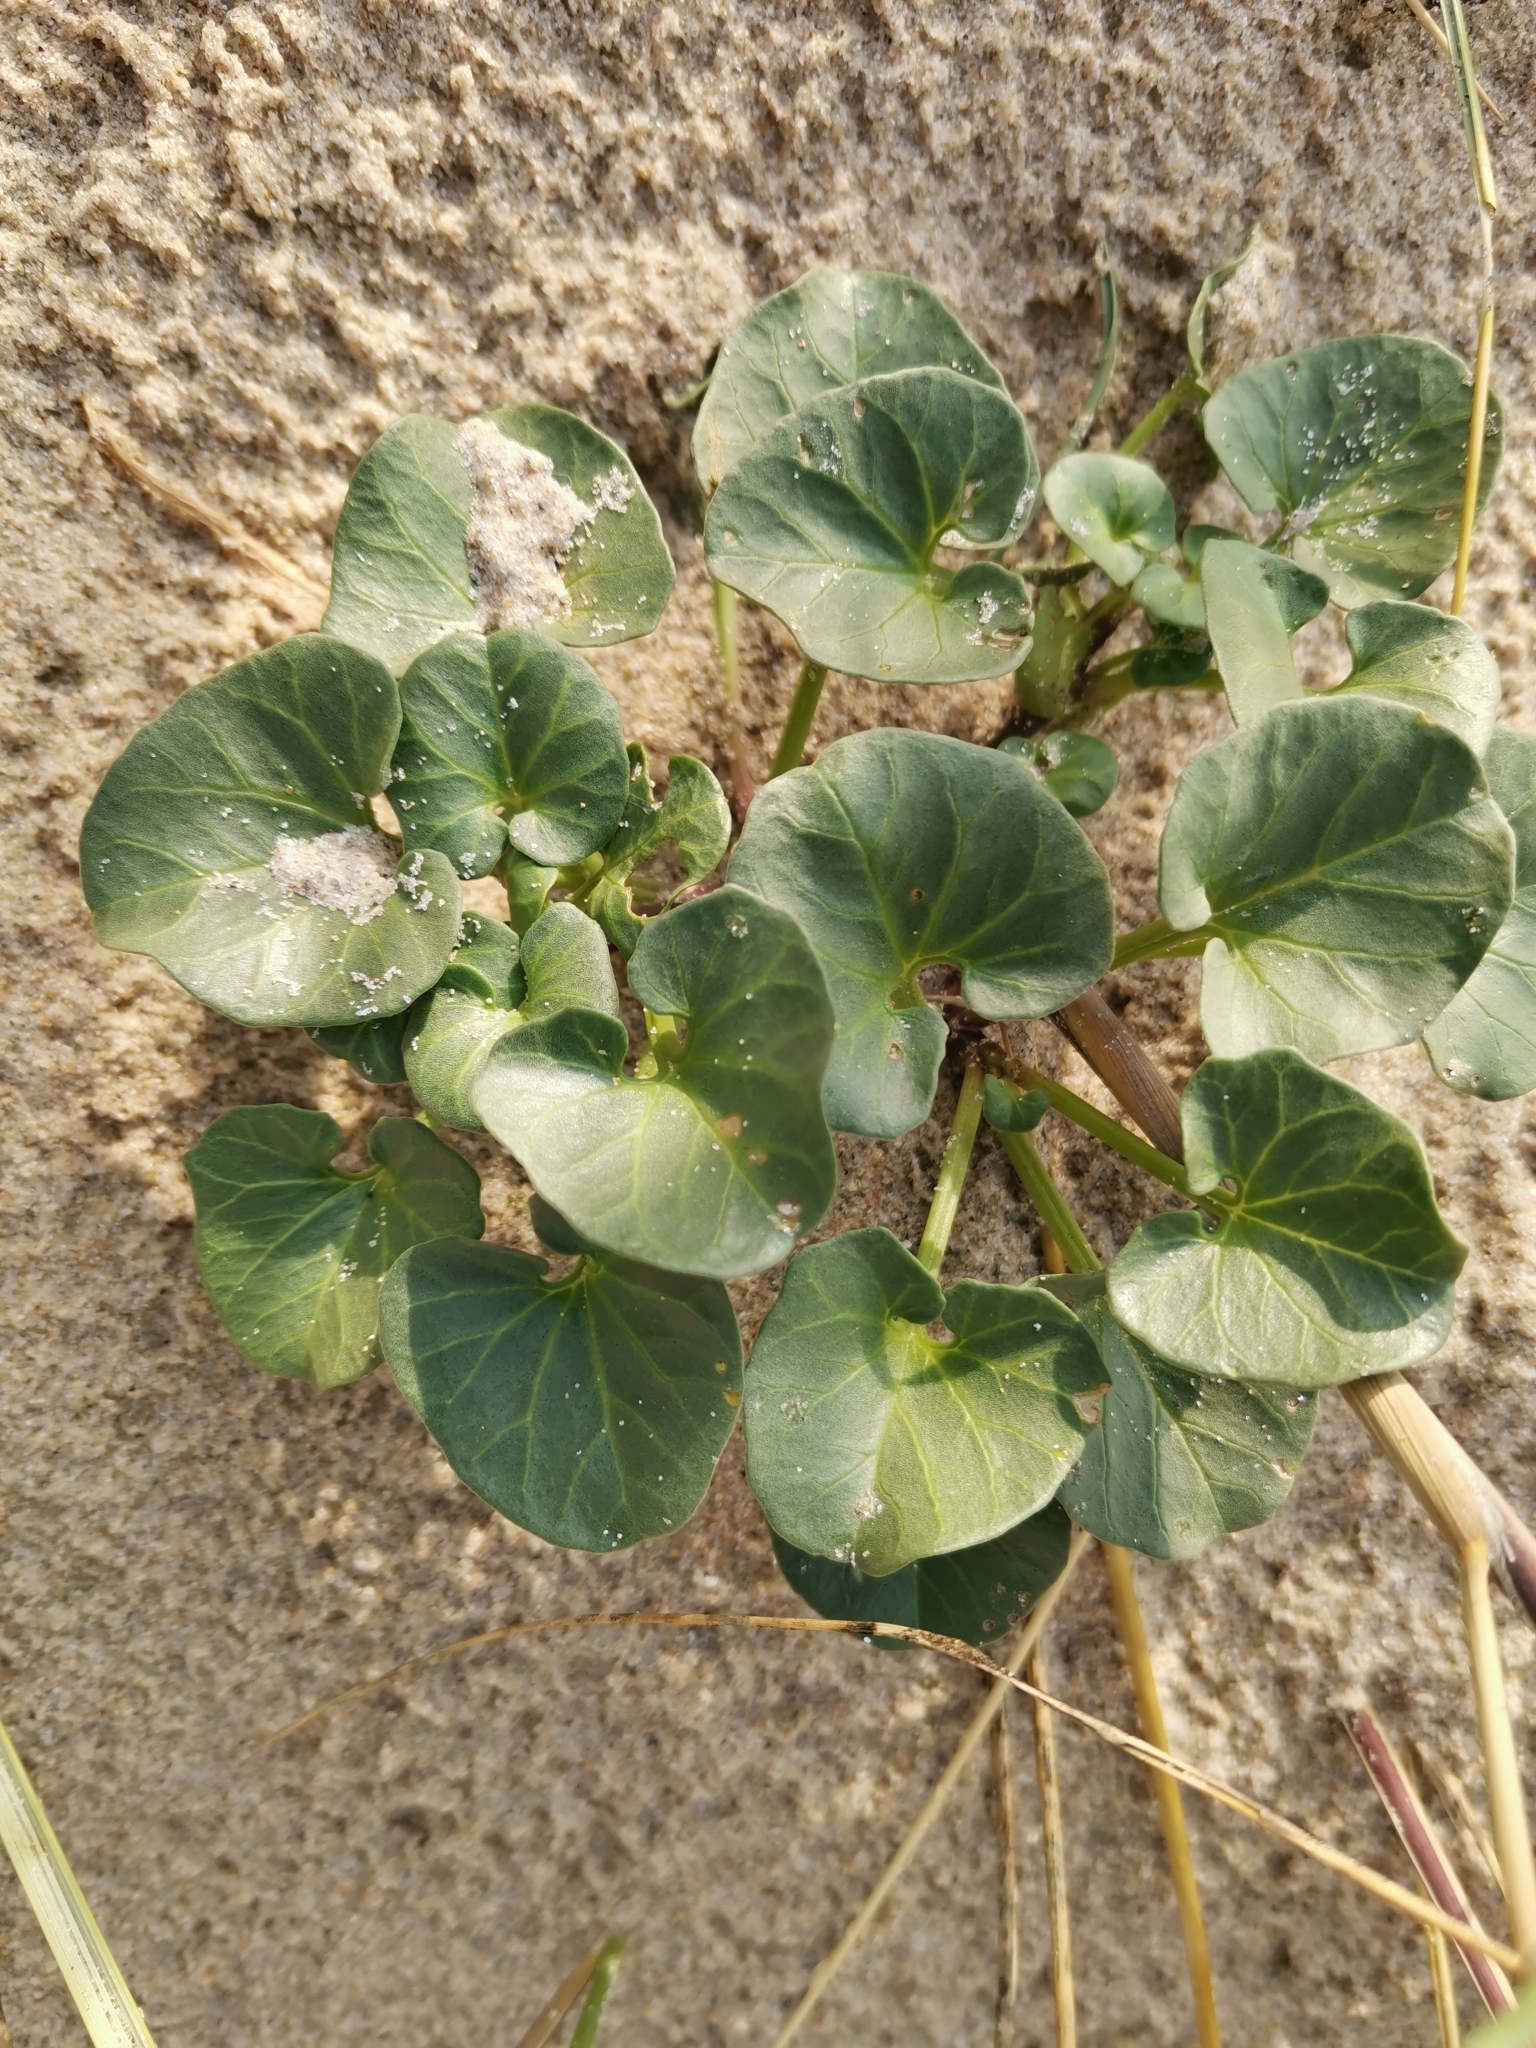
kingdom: Plantae
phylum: Tracheophyta
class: Magnoliopsida
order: Solanales
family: Convolvulaceae
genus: Calystegia
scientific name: Calystegia soldanella
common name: Sea bindweed
